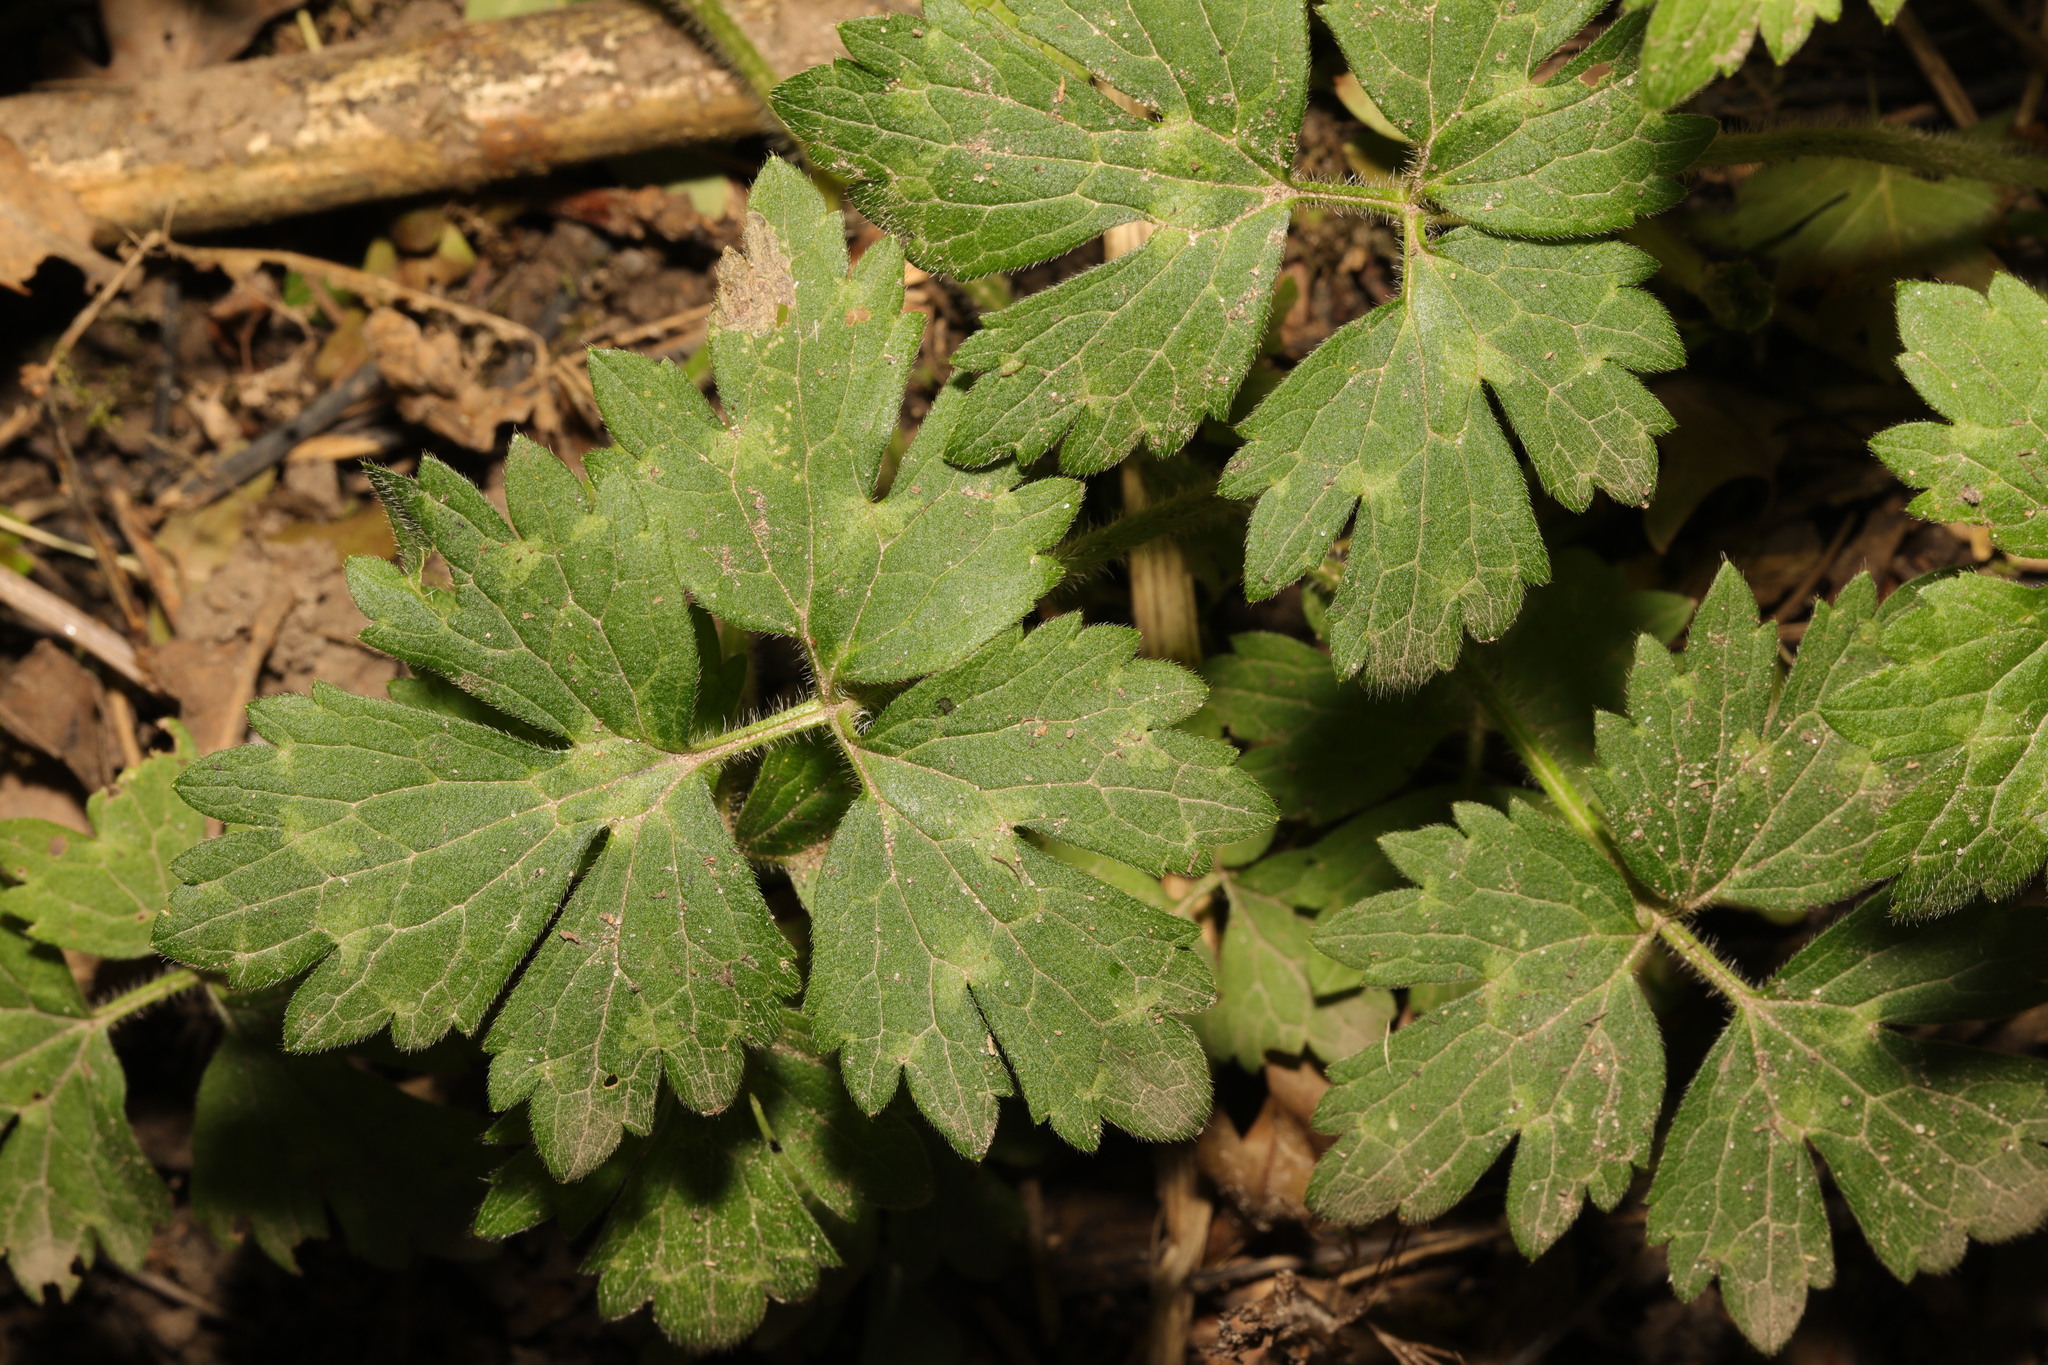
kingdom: Plantae
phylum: Tracheophyta
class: Magnoliopsida
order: Ranunculales
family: Ranunculaceae
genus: Ranunculus
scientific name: Ranunculus repens
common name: Creeping buttercup
